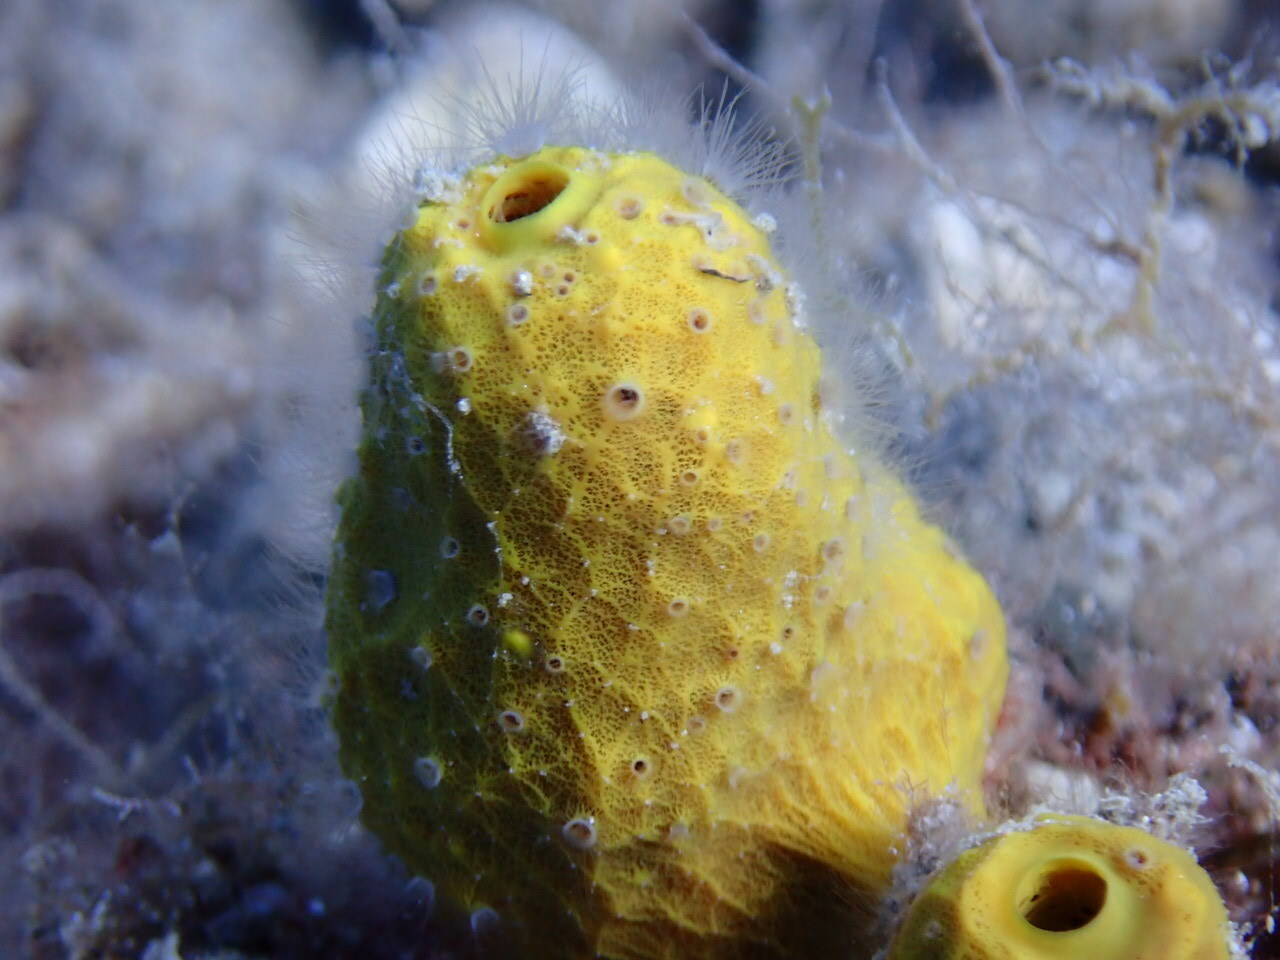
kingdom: Animalia
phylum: Porifera
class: Demospongiae
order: Verongiida
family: Aplysinidae
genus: Aplysina
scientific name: Aplysina aerophoba
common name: Aureate sponge
